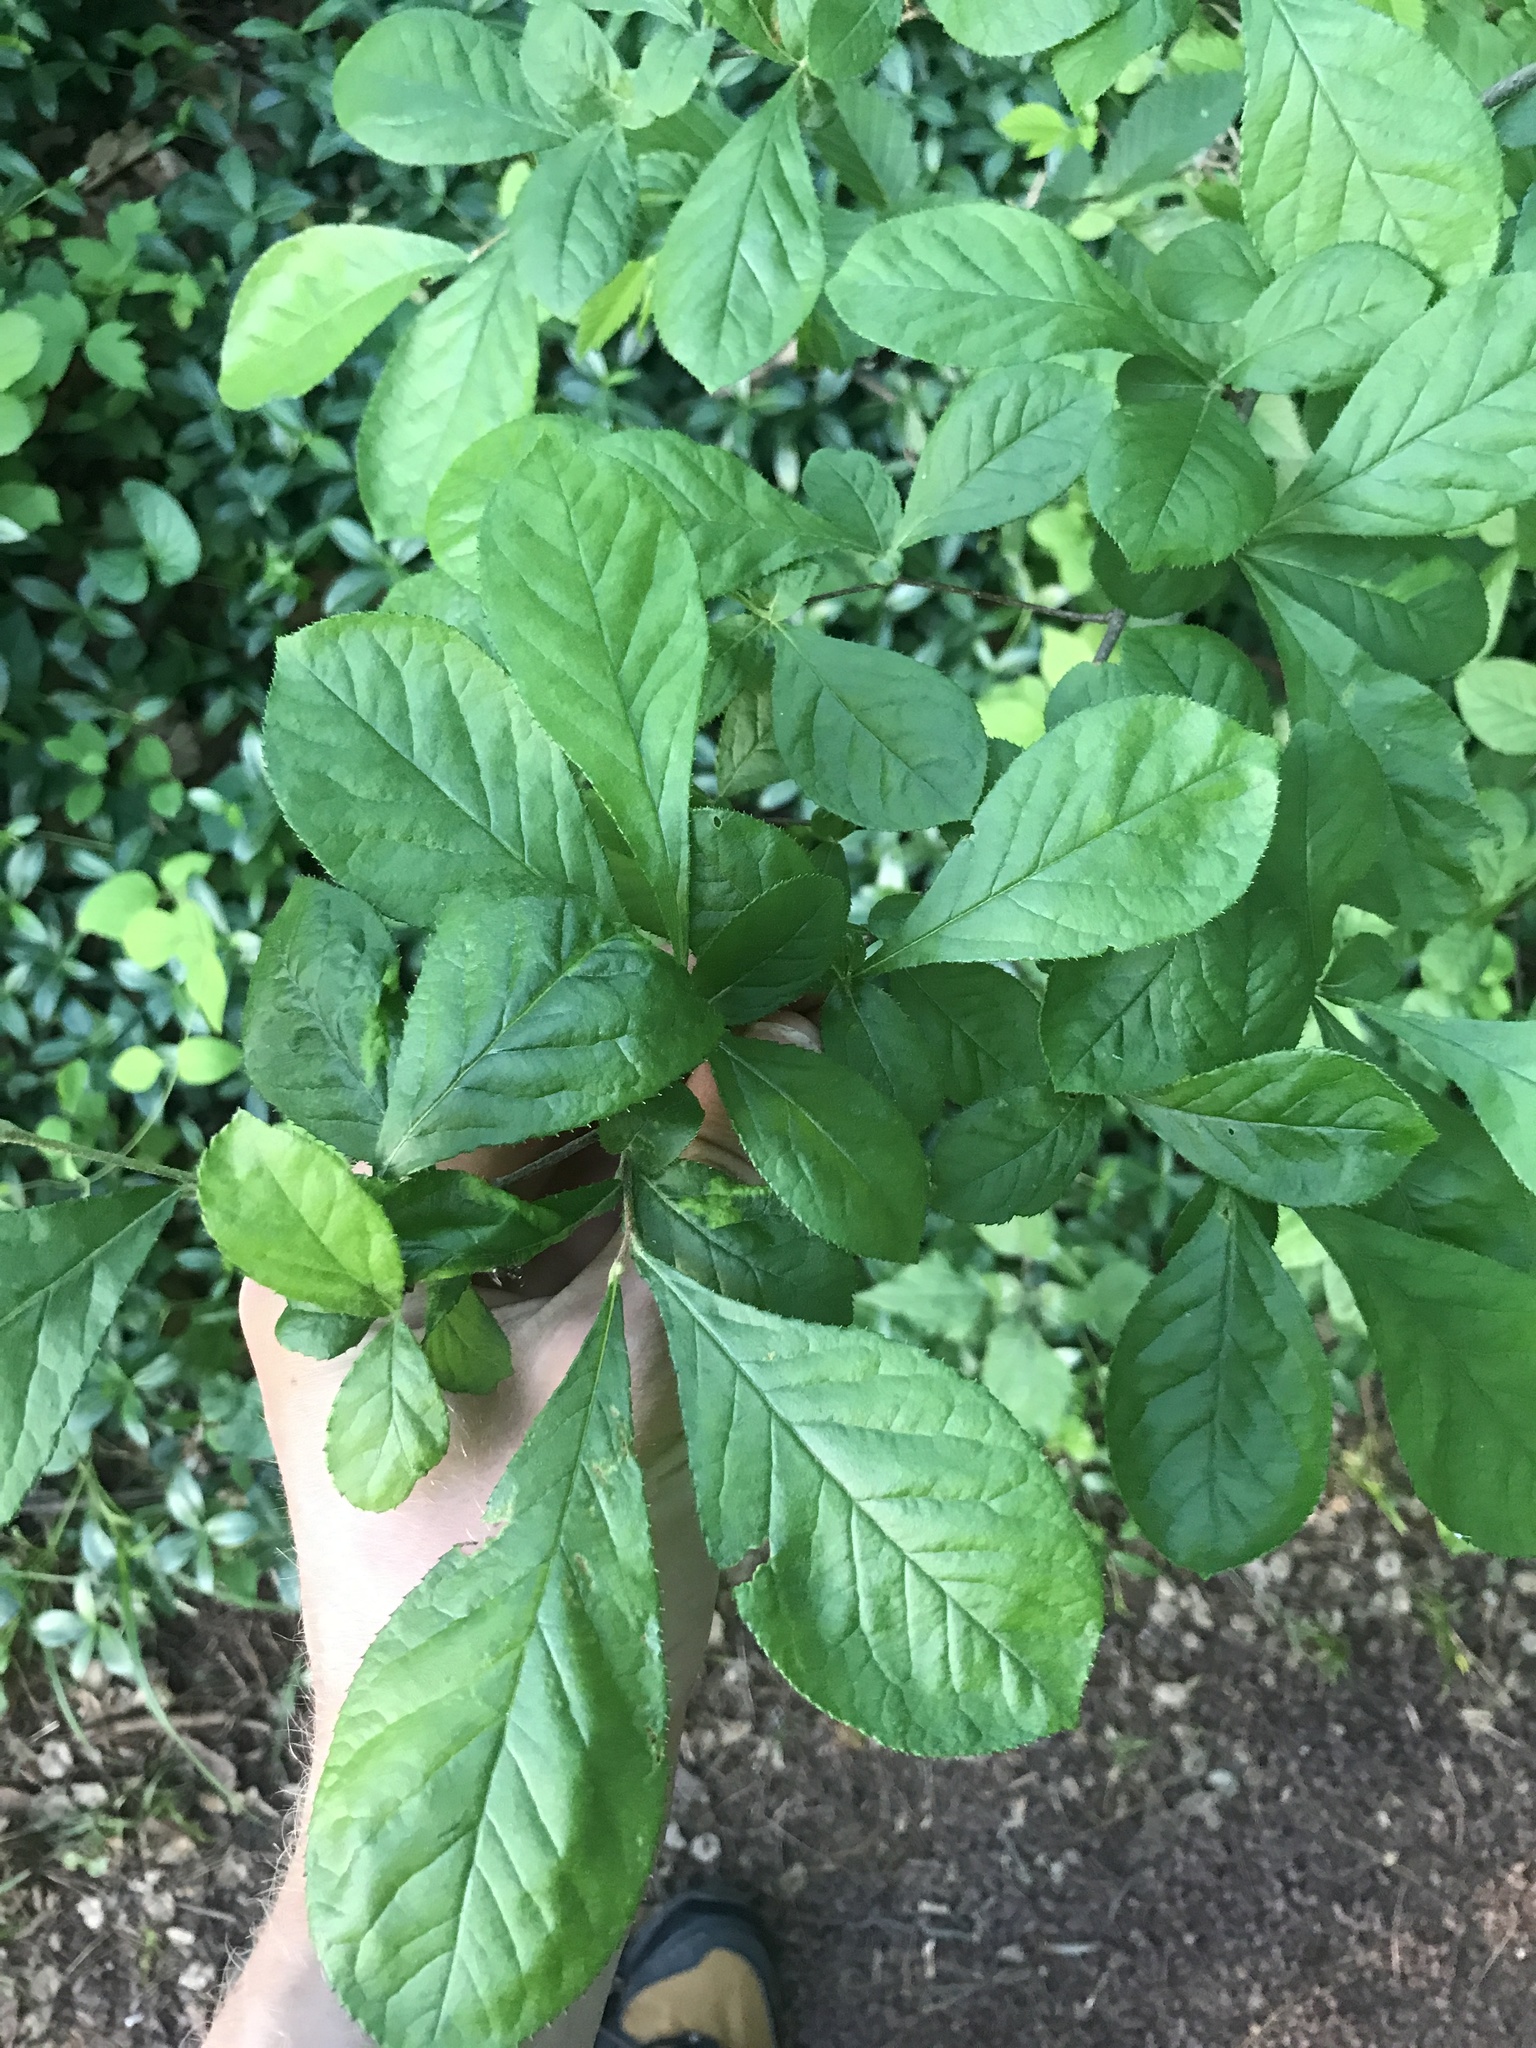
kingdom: Plantae
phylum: Tracheophyta
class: Magnoliopsida
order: Rosales
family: Rosaceae
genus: Pourthiaea
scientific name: Pourthiaea villosa
